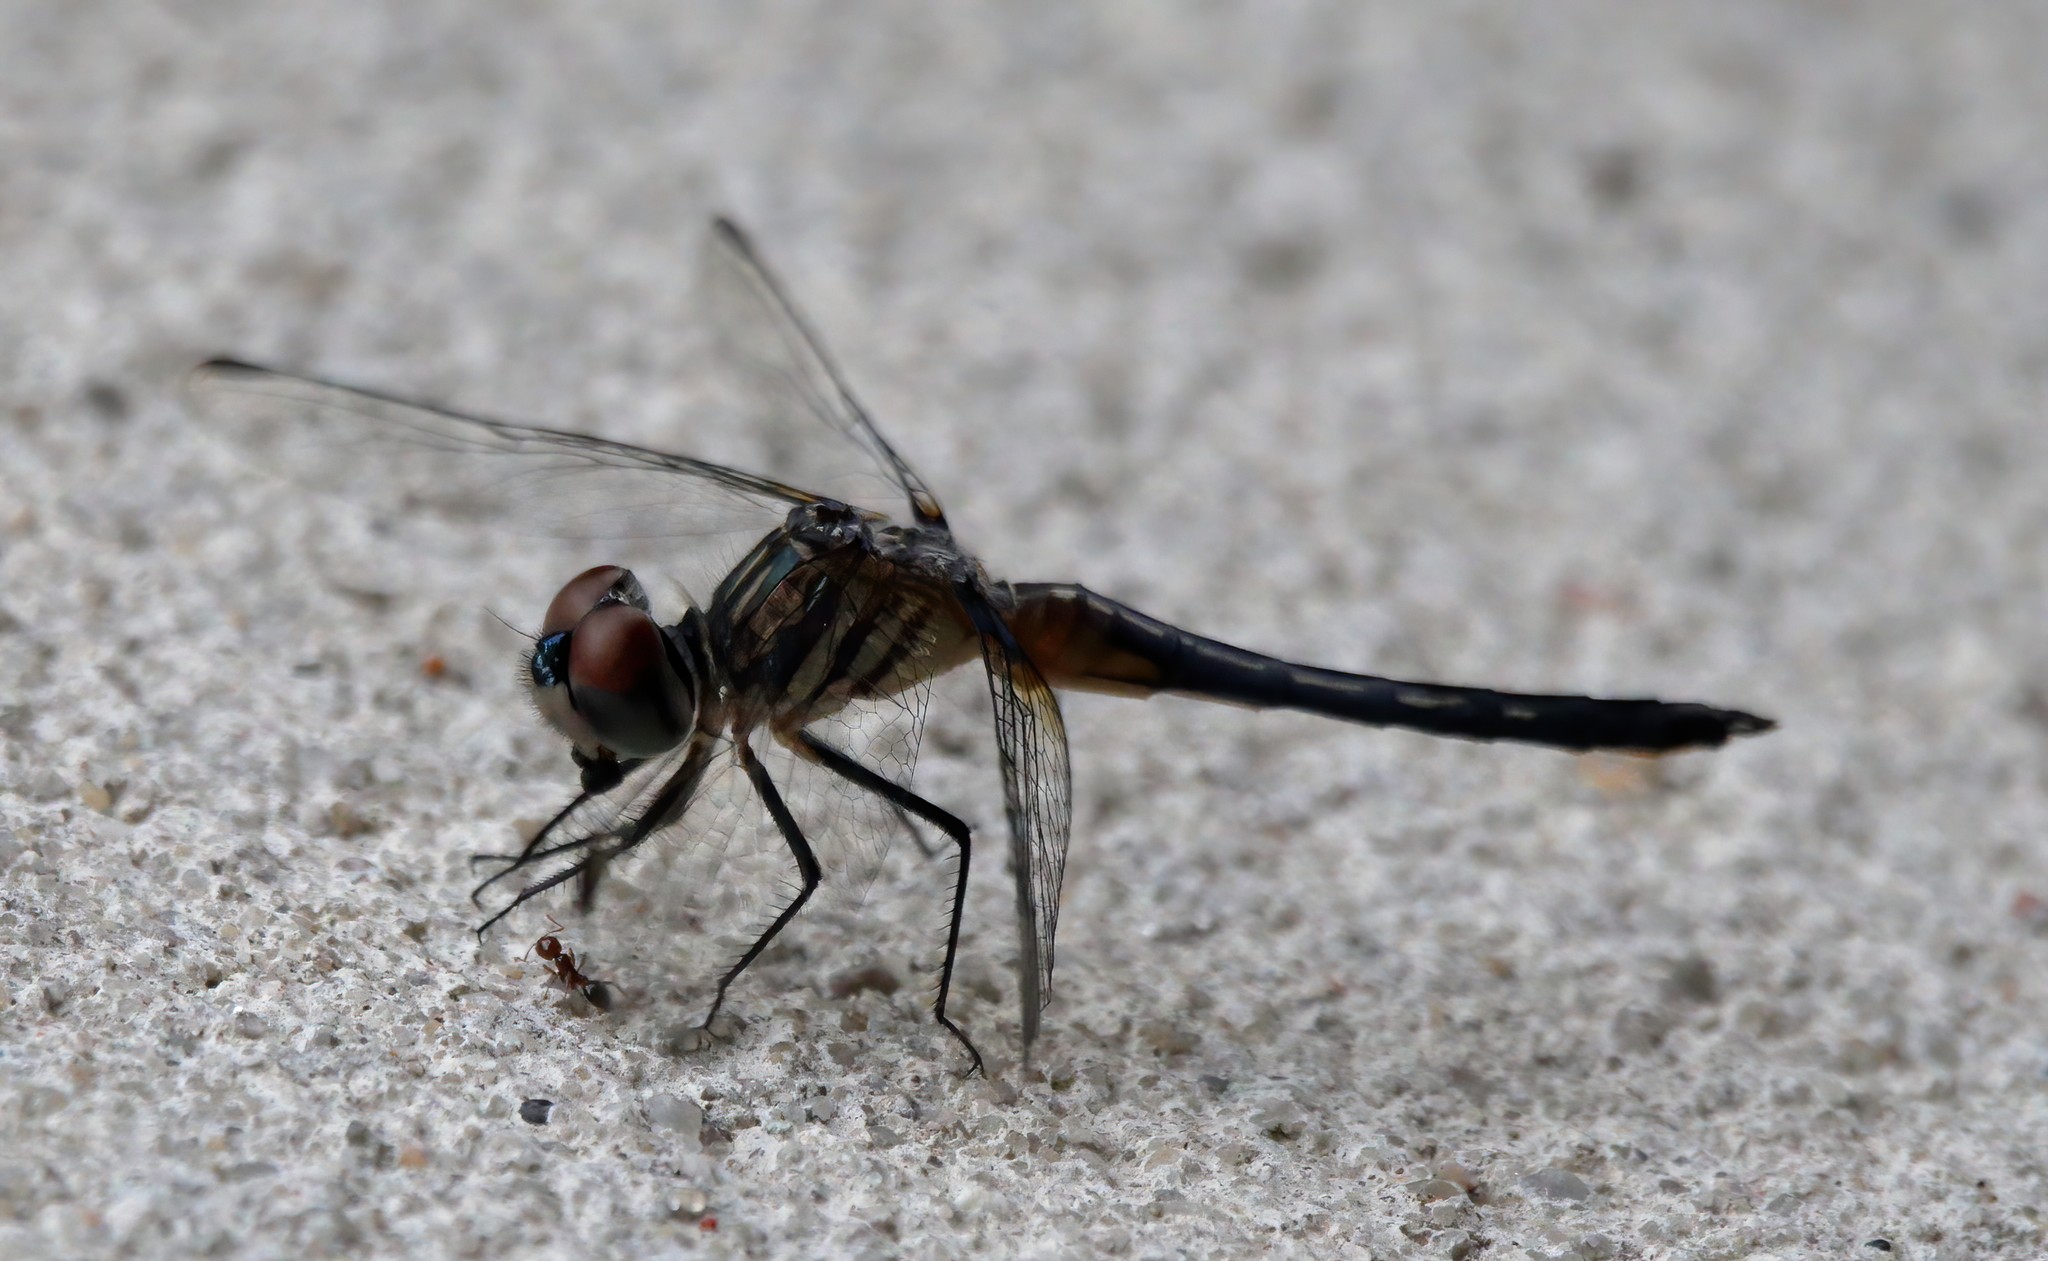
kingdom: Animalia
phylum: Arthropoda
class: Insecta
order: Odonata
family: Libellulidae
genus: Pachydiplax
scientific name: Pachydiplax longipennis
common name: Blue dasher
